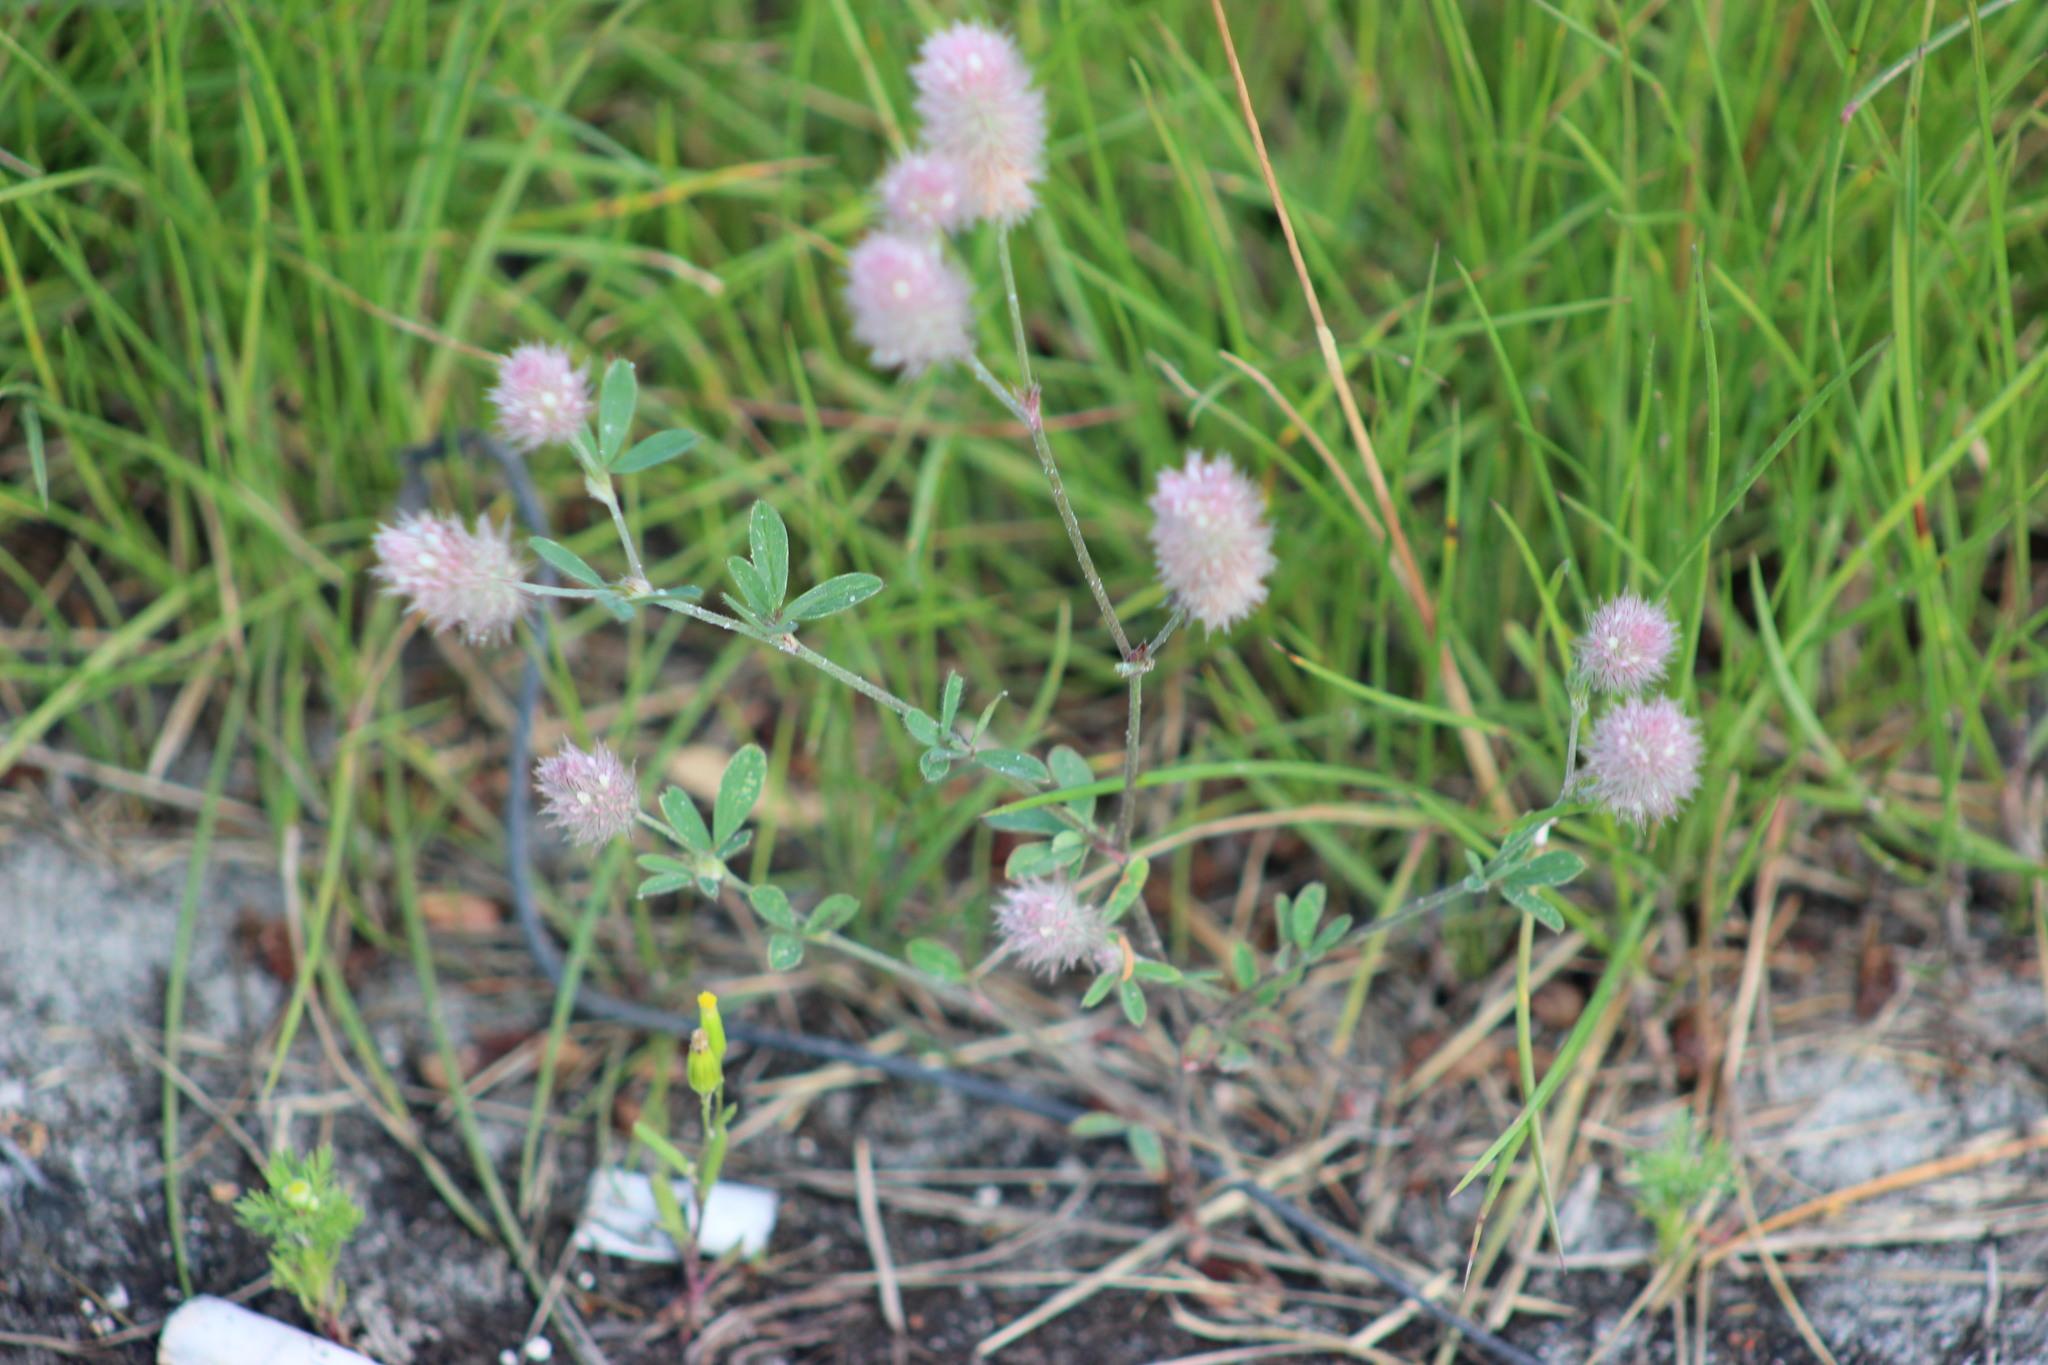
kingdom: Plantae
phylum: Tracheophyta
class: Magnoliopsida
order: Fabales
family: Fabaceae
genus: Trifolium
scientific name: Trifolium arvense
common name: Hare's-foot clover
